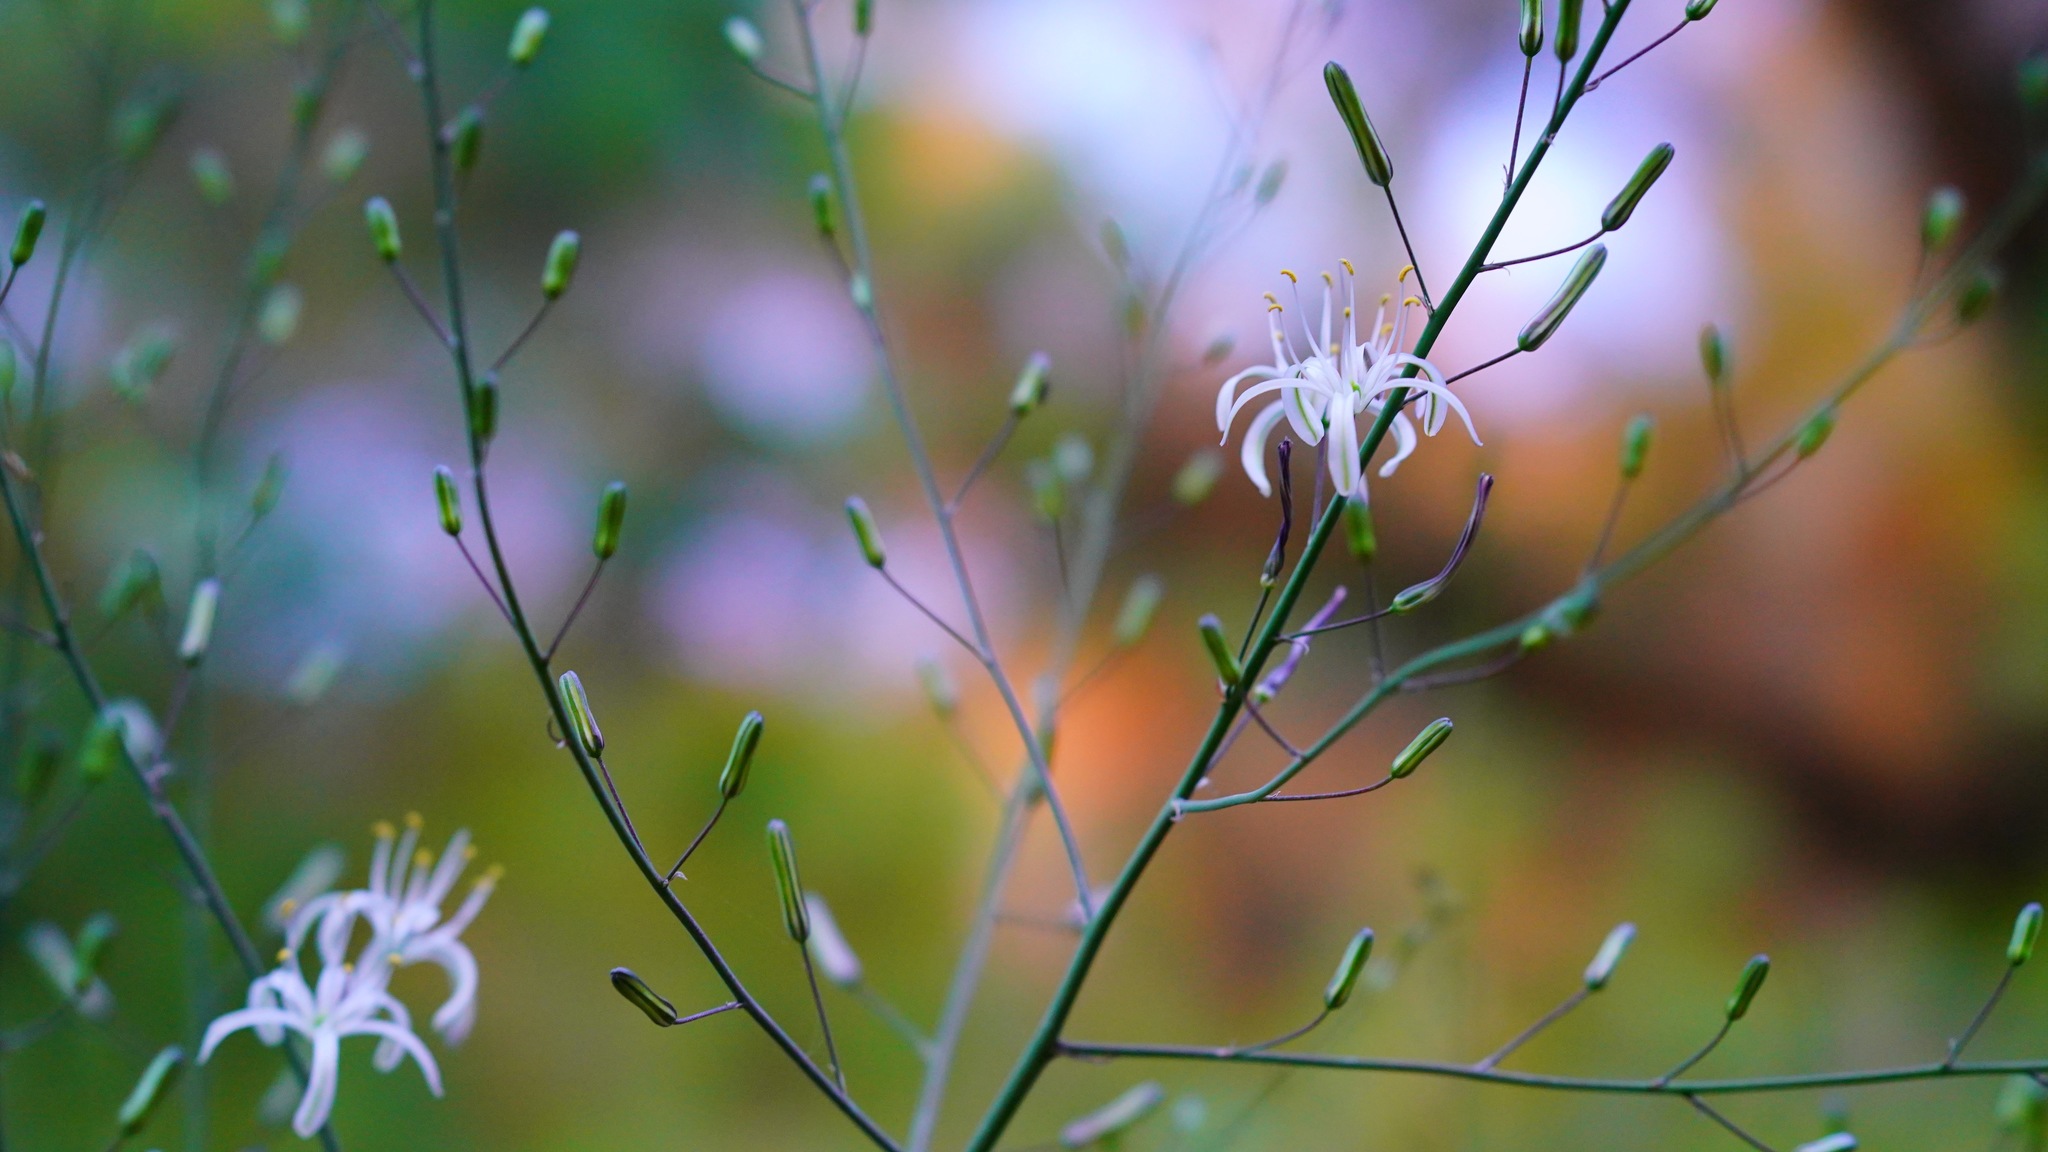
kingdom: Plantae
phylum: Tracheophyta
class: Liliopsida
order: Asparagales
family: Asparagaceae
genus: Chlorogalum
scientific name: Chlorogalum pomeridianum
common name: Amole
